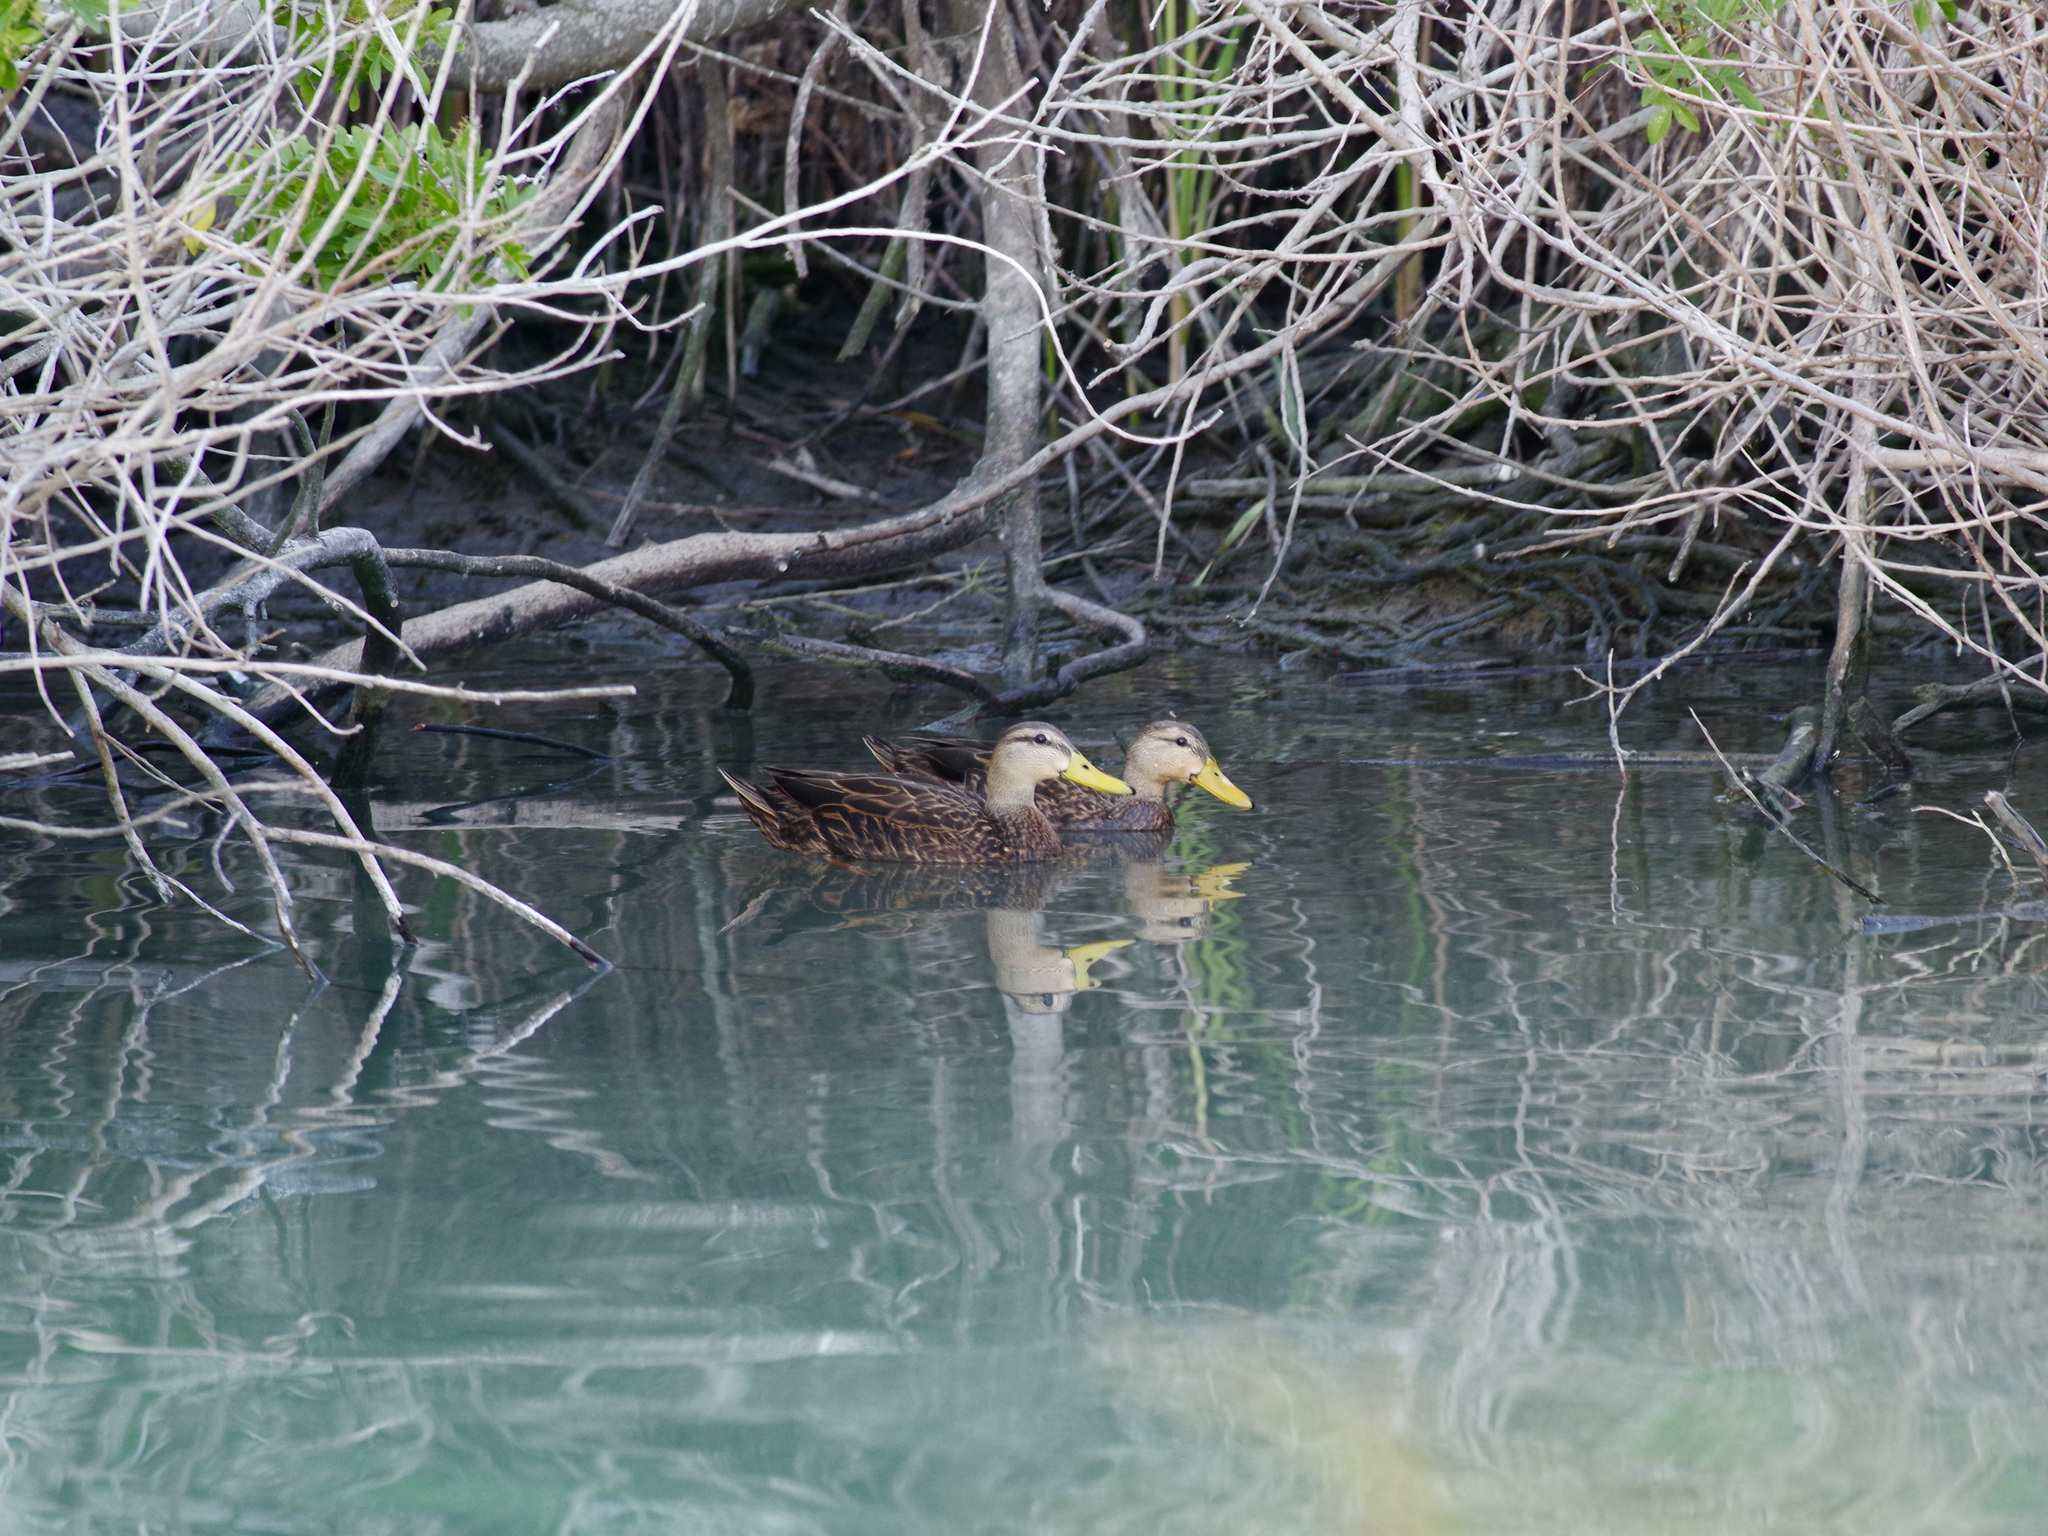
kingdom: Animalia
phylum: Chordata
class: Aves
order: Anseriformes
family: Anatidae
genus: Anas
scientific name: Anas fulvigula
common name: Mottled duck
